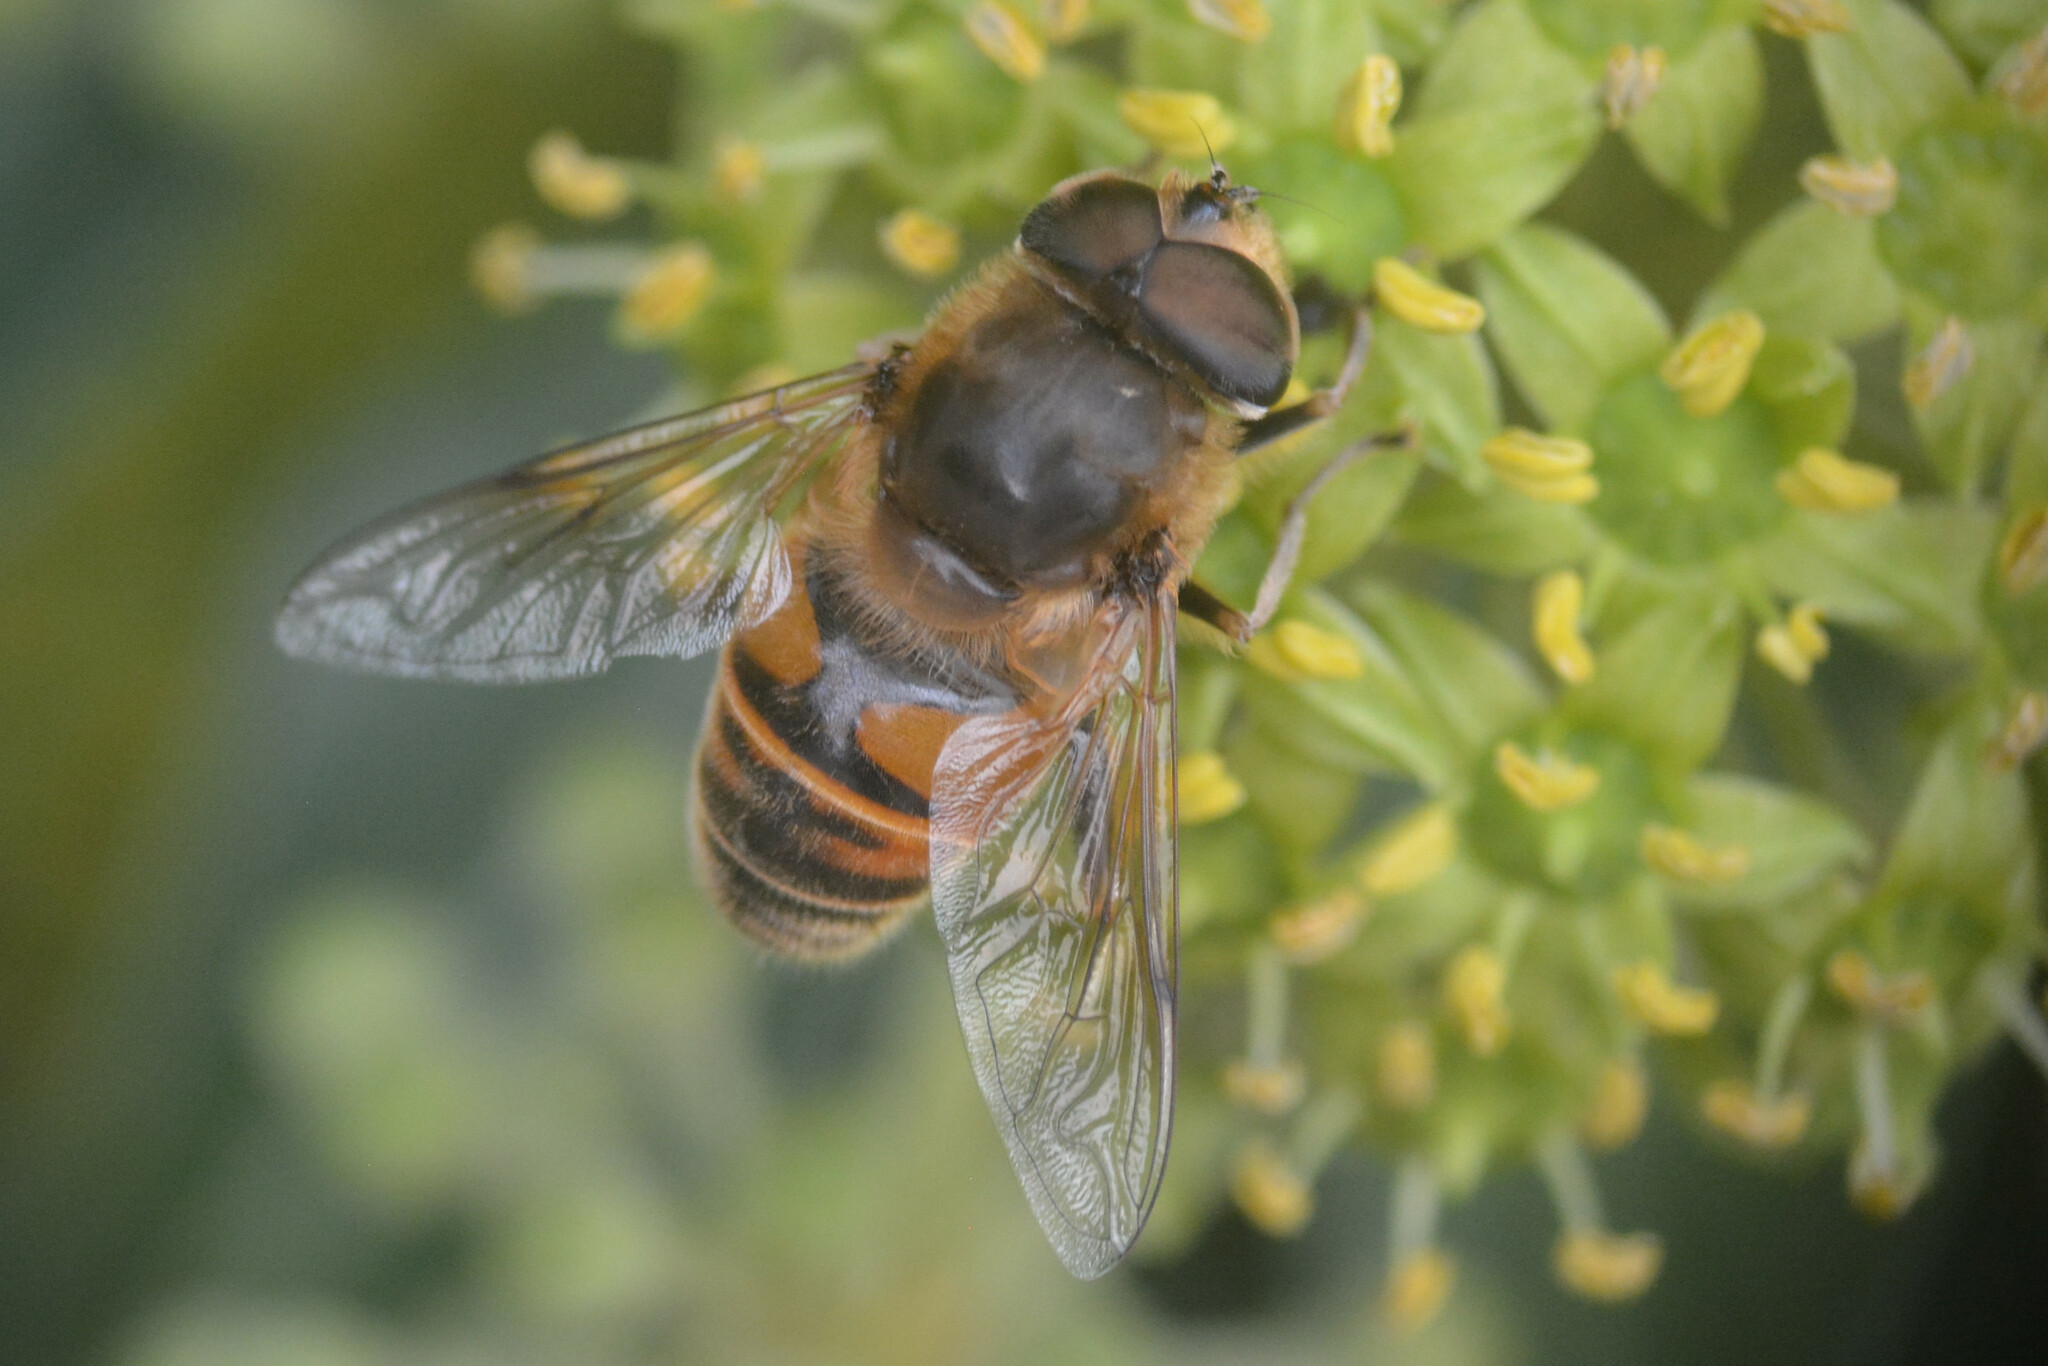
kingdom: Animalia
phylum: Arthropoda
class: Insecta
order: Diptera
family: Syrphidae
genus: Eristalis
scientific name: Eristalis tenax
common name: Drone fly
